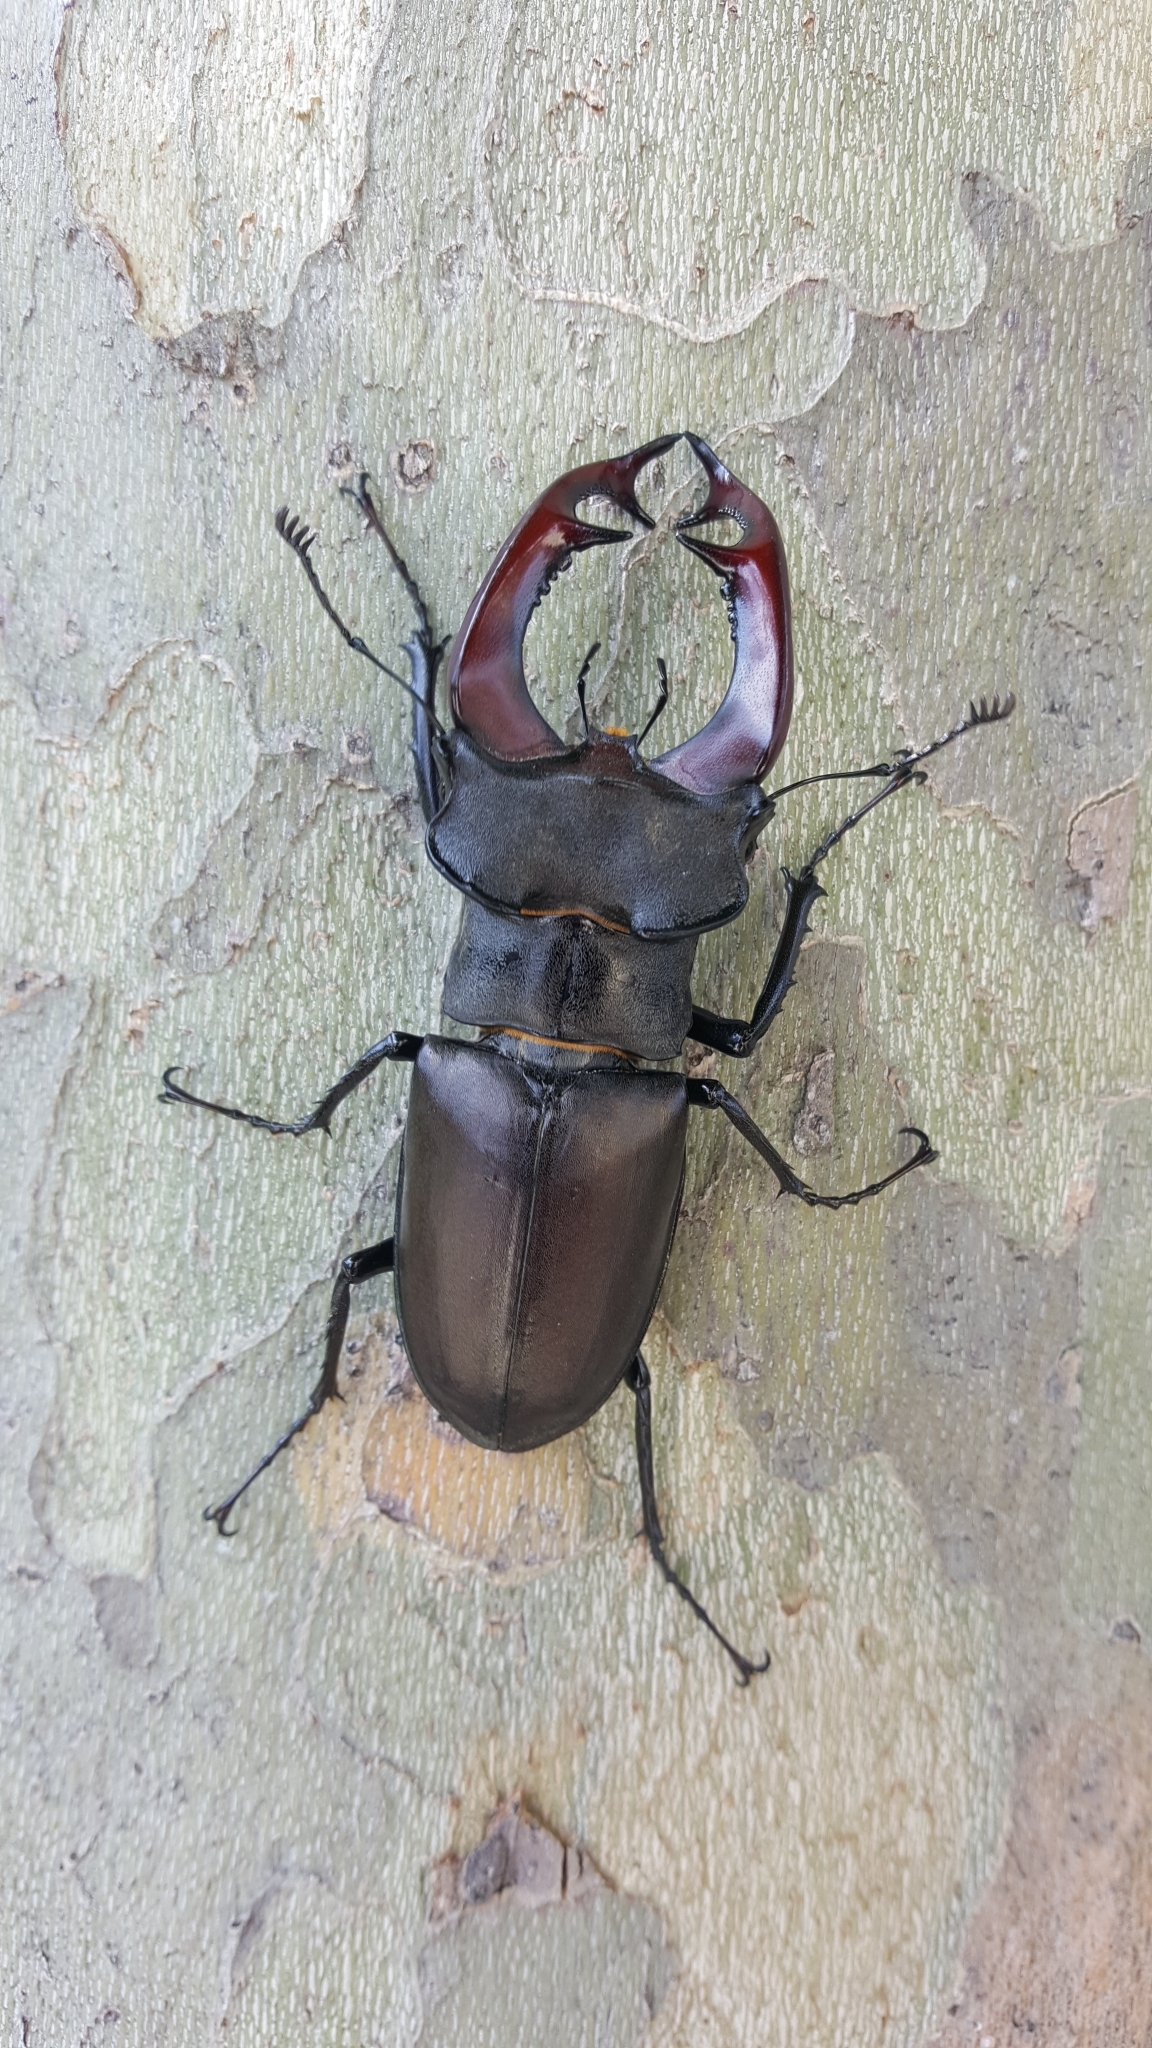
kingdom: Animalia
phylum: Arthropoda
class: Insecta
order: Coleoptera
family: Lucanidae
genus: Lucanus
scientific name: Lucanus cervus
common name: Stag beetle
